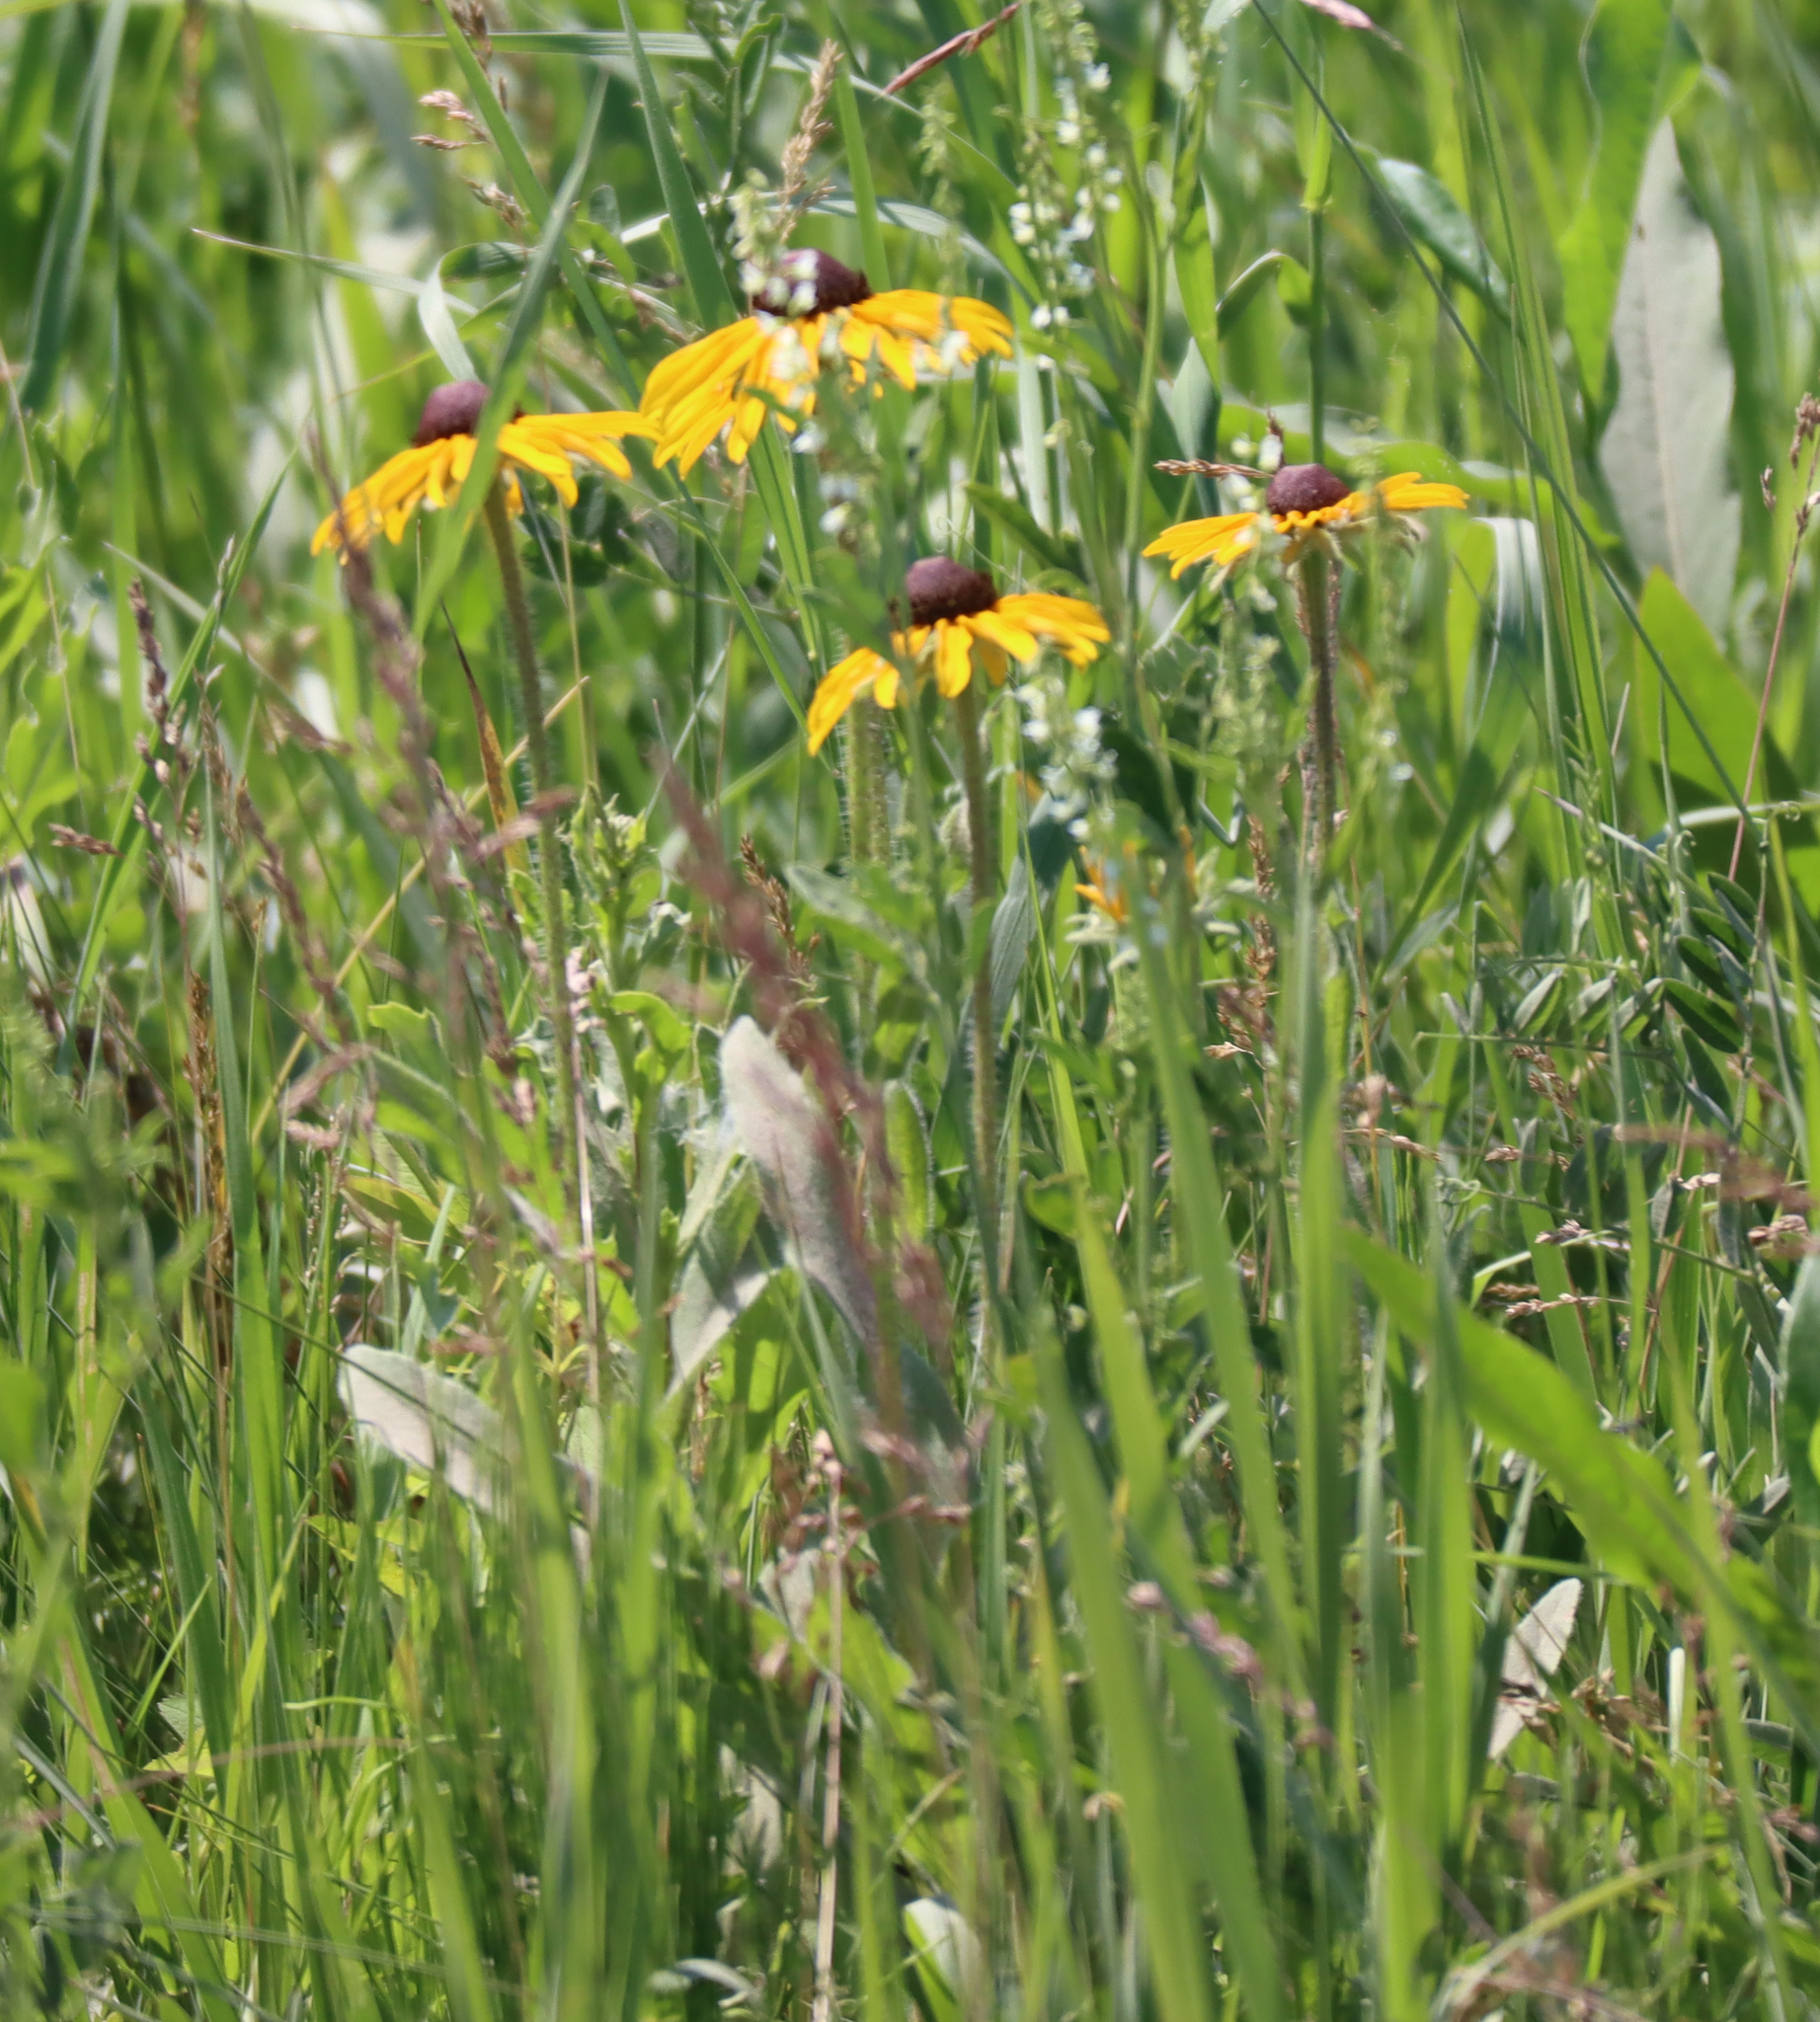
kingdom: Plantae
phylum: Tracheophyta
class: Magnoliopsida
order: Asterales
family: Asteraceae
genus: Rudbeckia
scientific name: Rudbeckia hirta
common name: Black-eyed-susan
